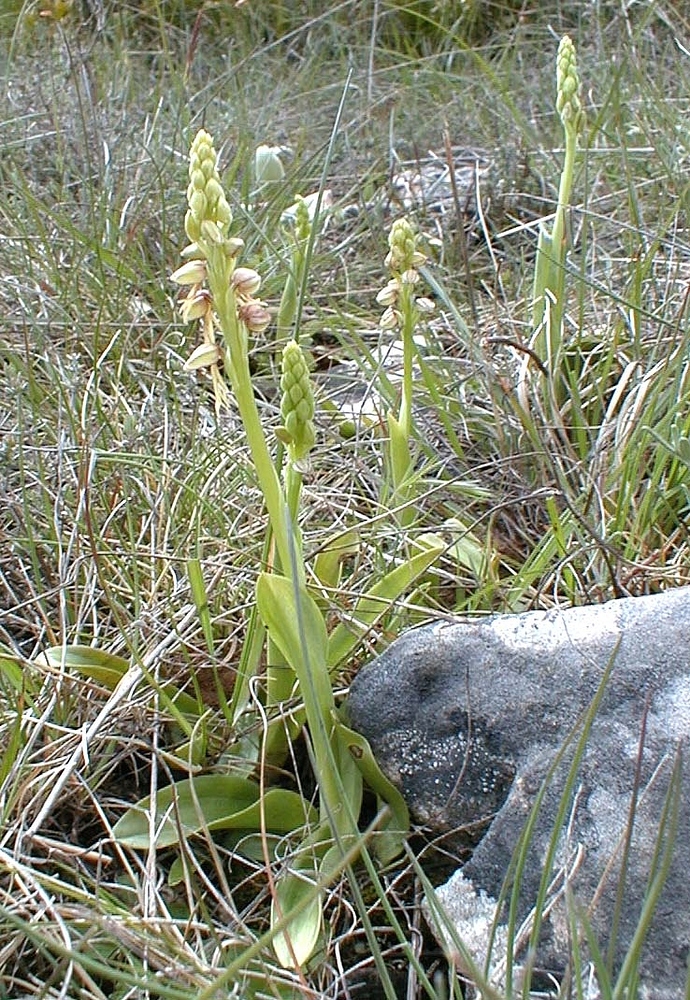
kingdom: Plantae
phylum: Tracheophyta
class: Liliopsida
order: Asparagales
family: Orchidaceae
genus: Orchis
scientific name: Orchis anthropophora
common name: Man orchid
